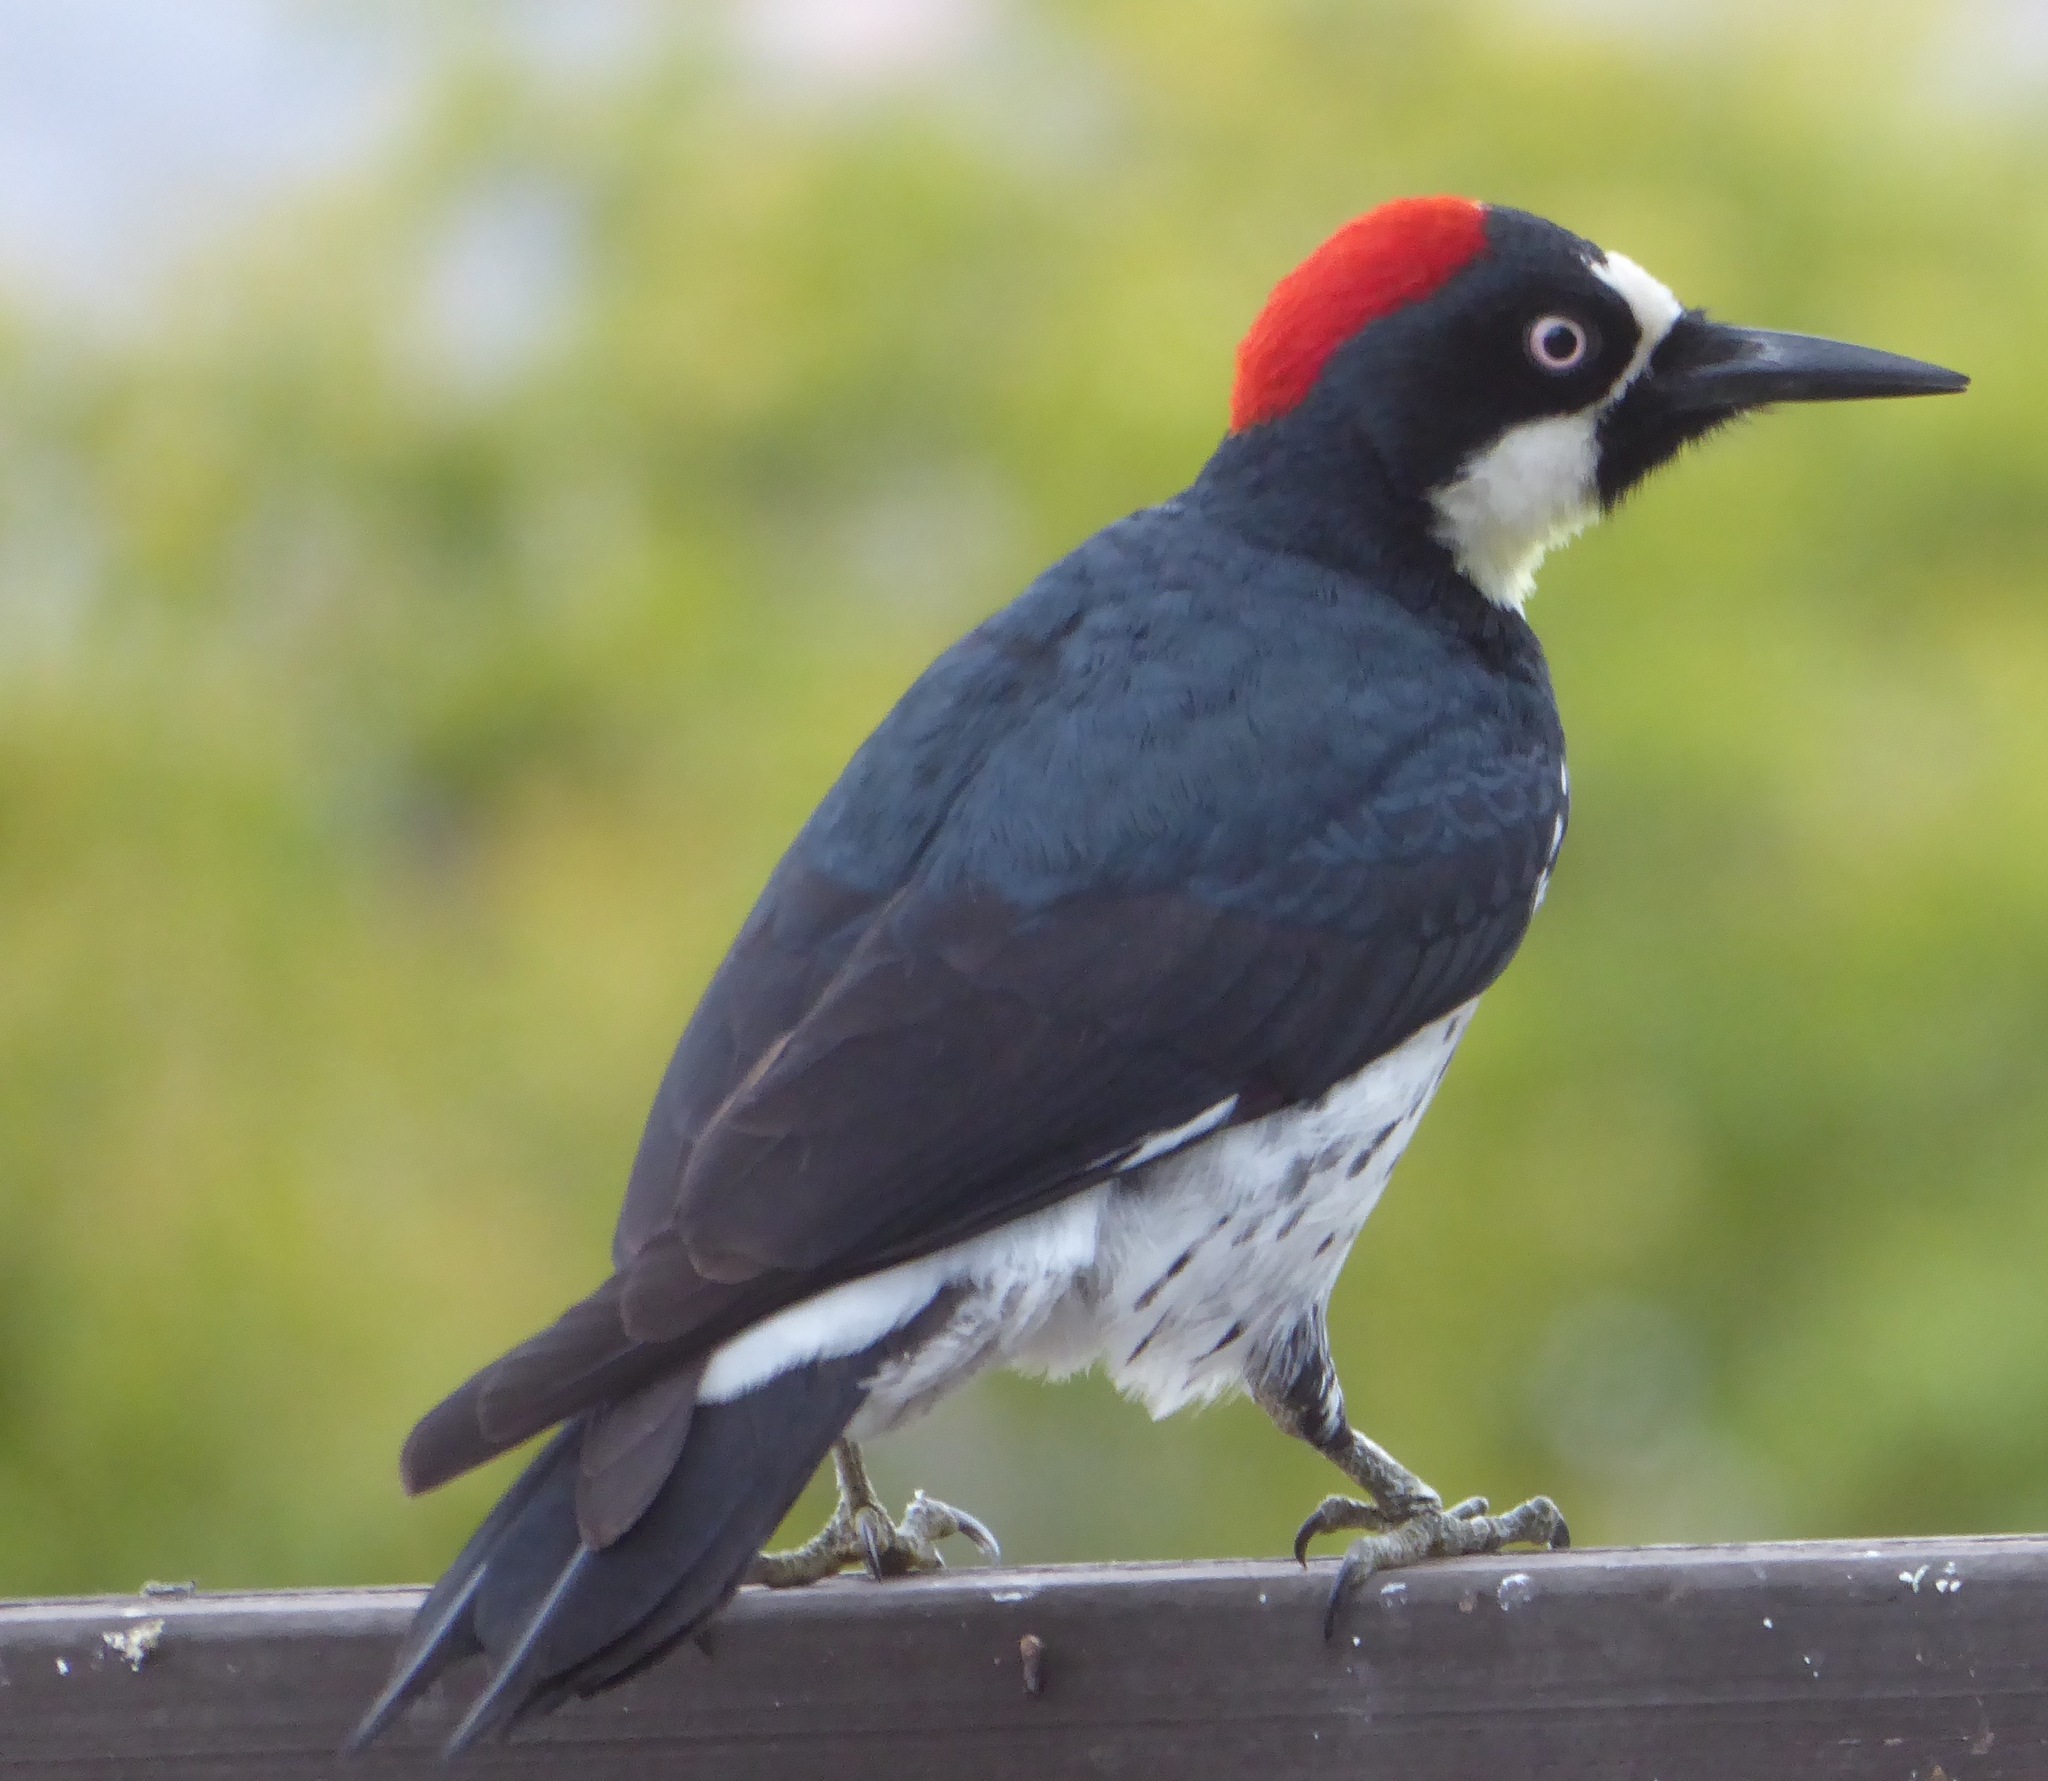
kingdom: Animalia
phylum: Chordata
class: Aves
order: Piciformes
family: Picidae
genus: Melanerpes
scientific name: Melanerpes formicivorus
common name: Acorn woodpecker
